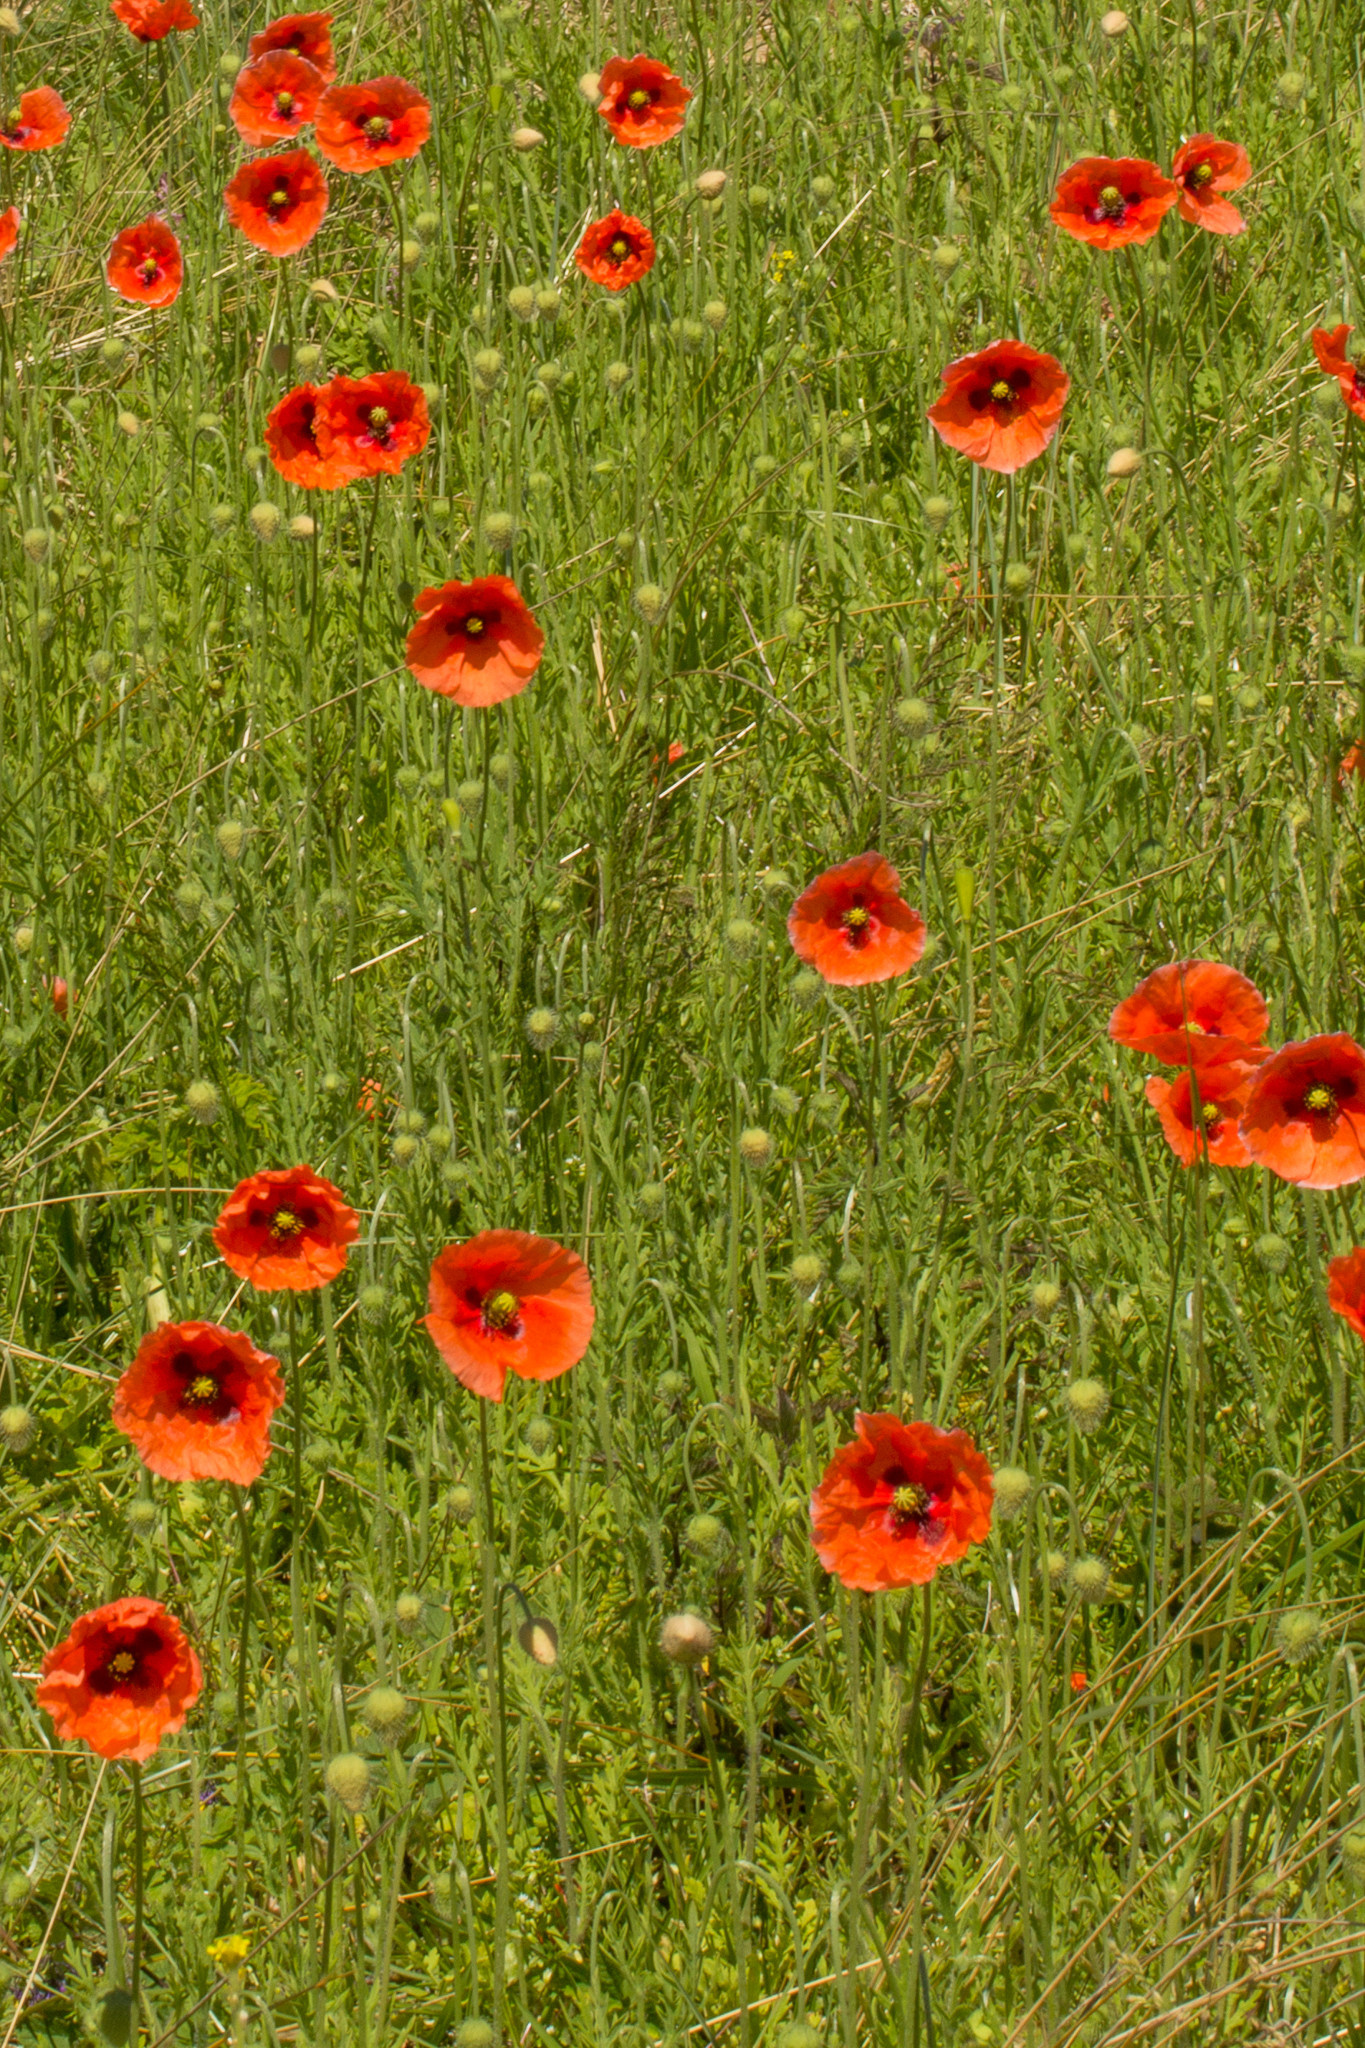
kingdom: Plantae
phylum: Tracheophyta
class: Magnoliopsida
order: Ranunculales
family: Papaveraceae
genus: Papaver
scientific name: Papaver rhoeas
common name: Corn poppy
